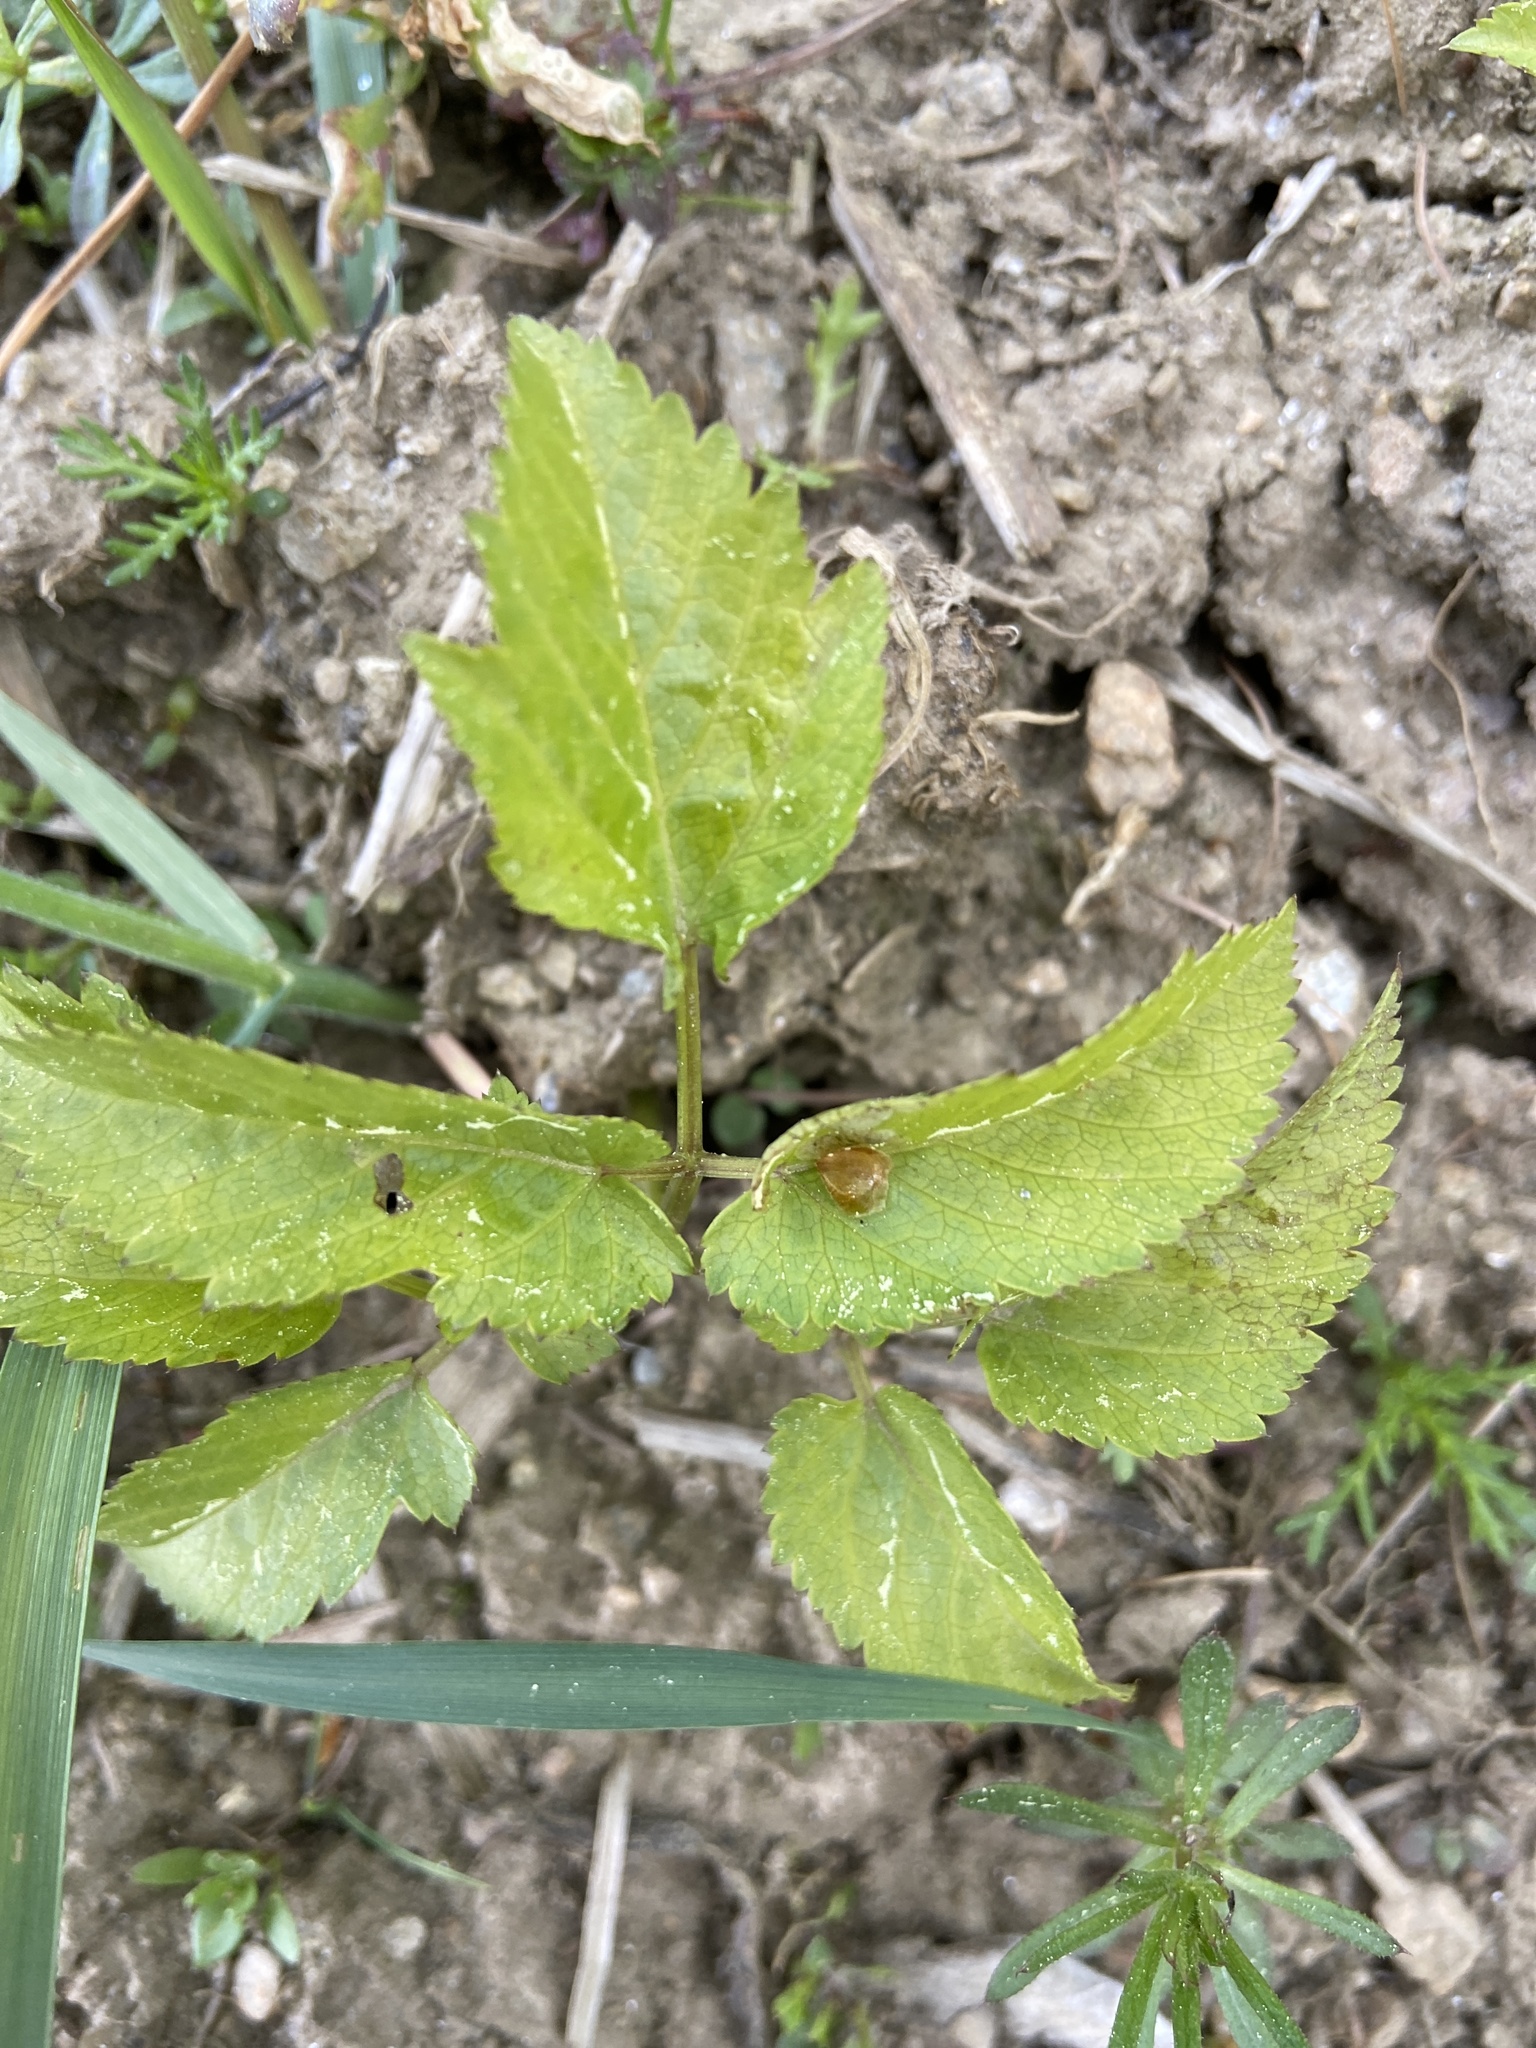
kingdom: Plantae
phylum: Tracheophyta
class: Magnoliopsida
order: Apiales
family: Apiaceae
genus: Aegopodium
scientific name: Aegopodium podagraria
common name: Ground-elder
